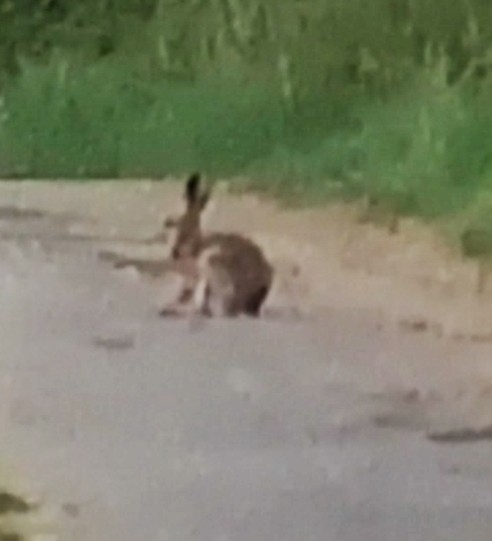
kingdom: Animalia
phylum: Chordata
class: Mammalia
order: Lagomorpha
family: Leporidae
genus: Lepus
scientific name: Lepus europaeus
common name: European hare
